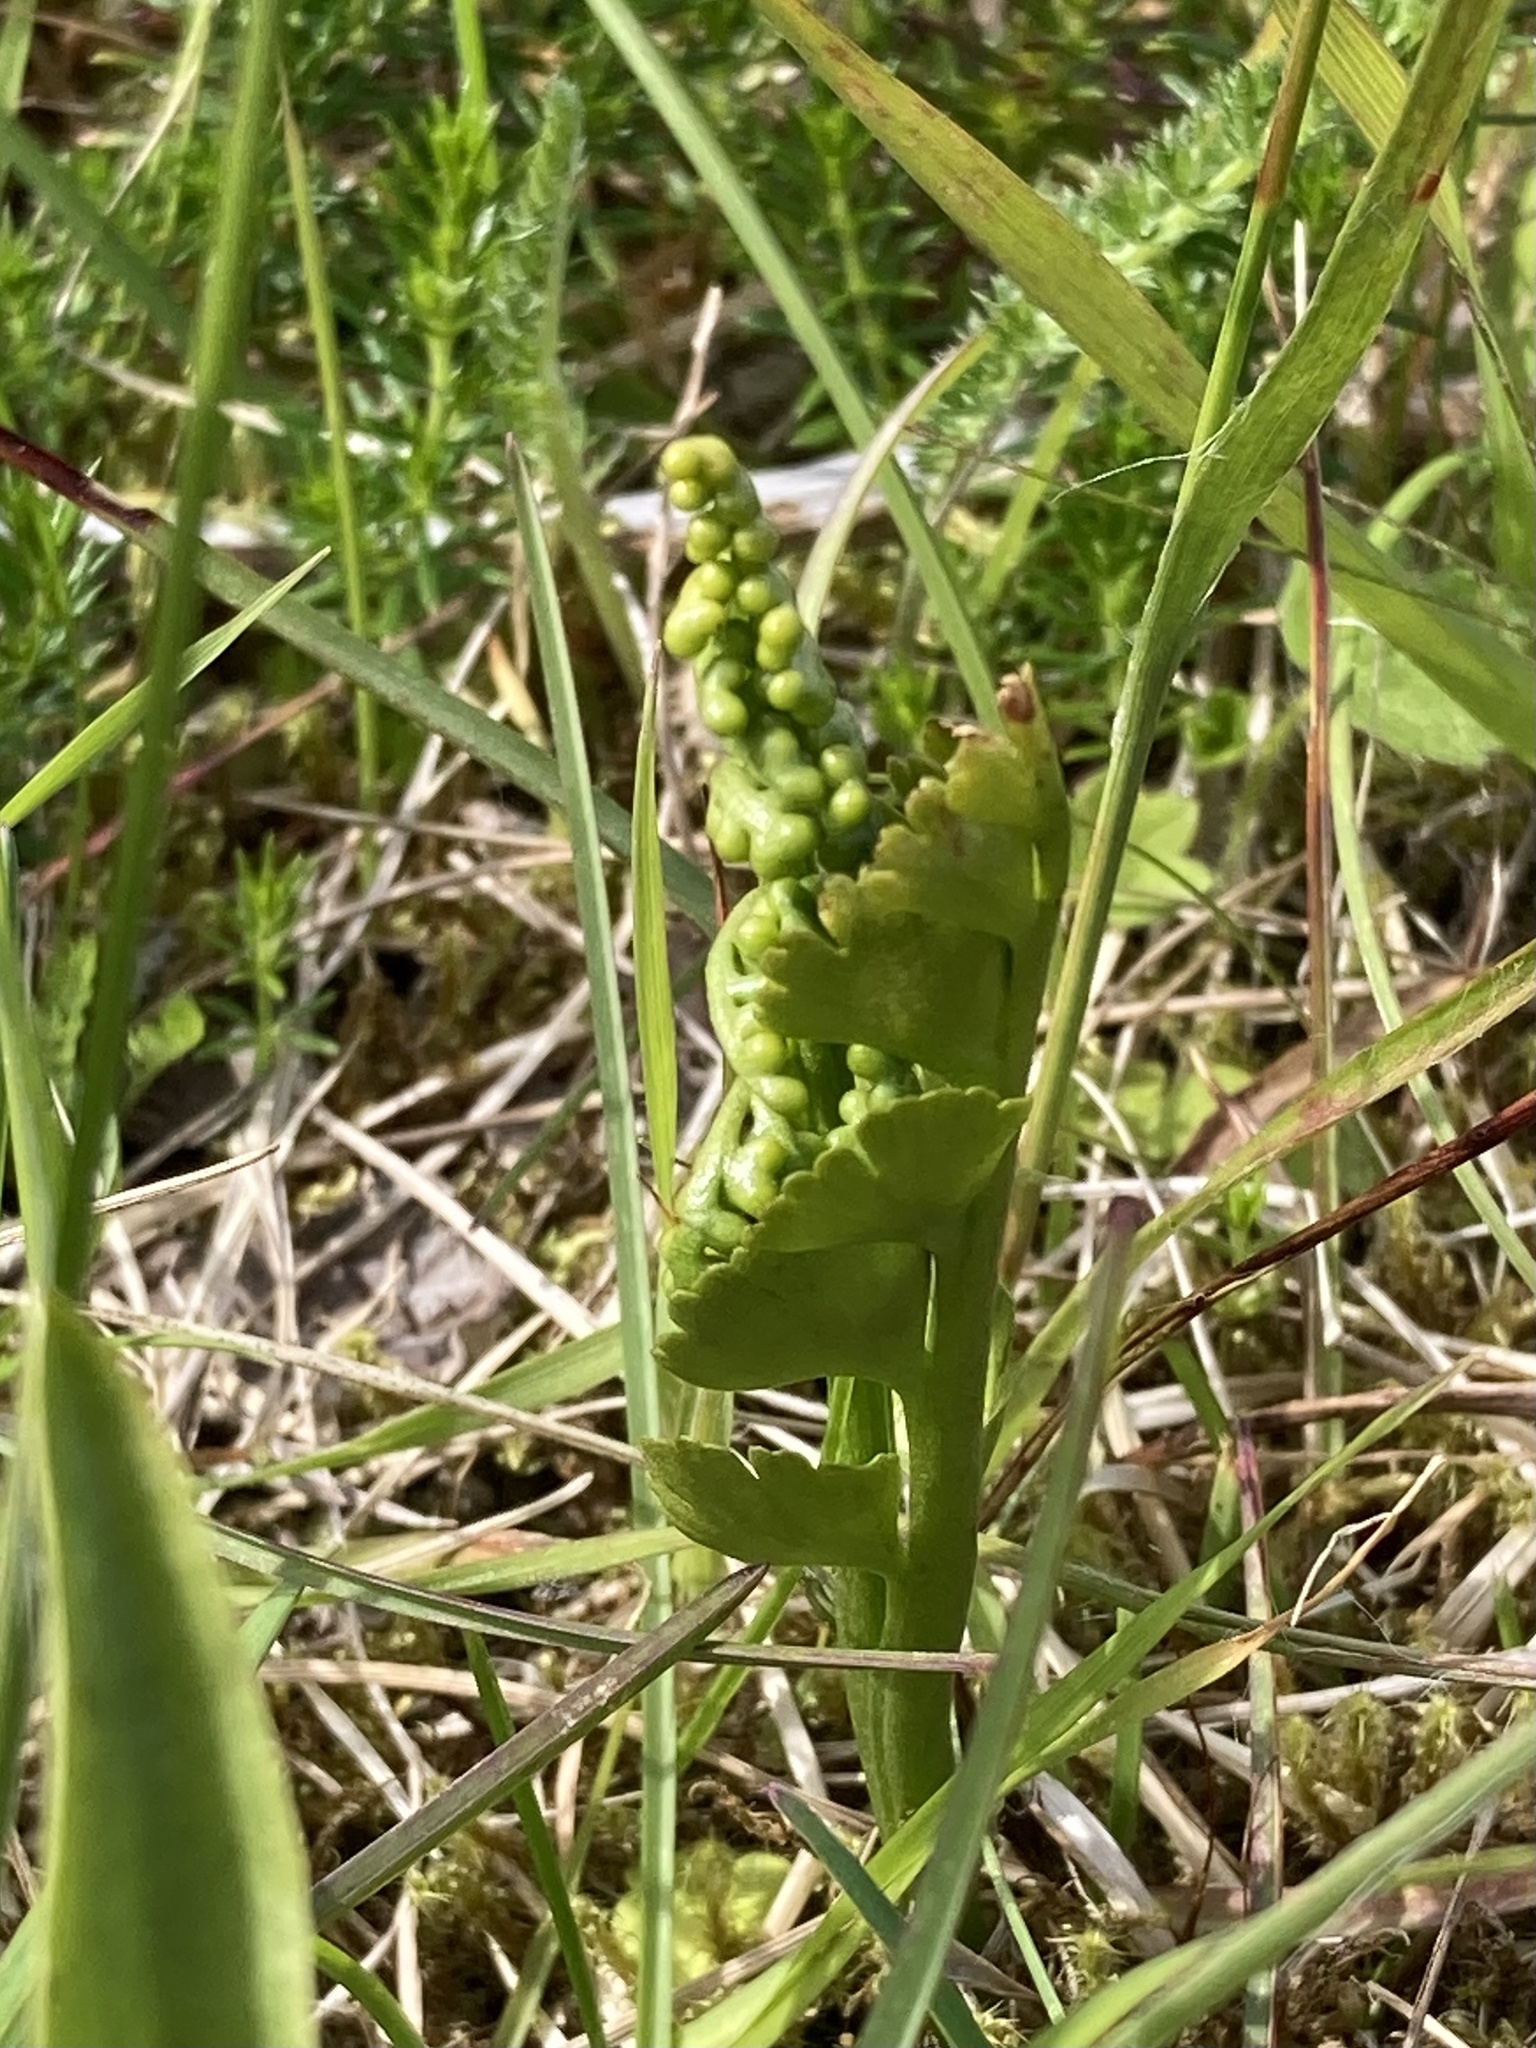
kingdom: Plantae
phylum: Tracheophyta
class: Polypodiopsida
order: Ophioglossales
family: Ophioglossaceae
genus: Botrychium
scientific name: Botrychium lunaria
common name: Moonwort
